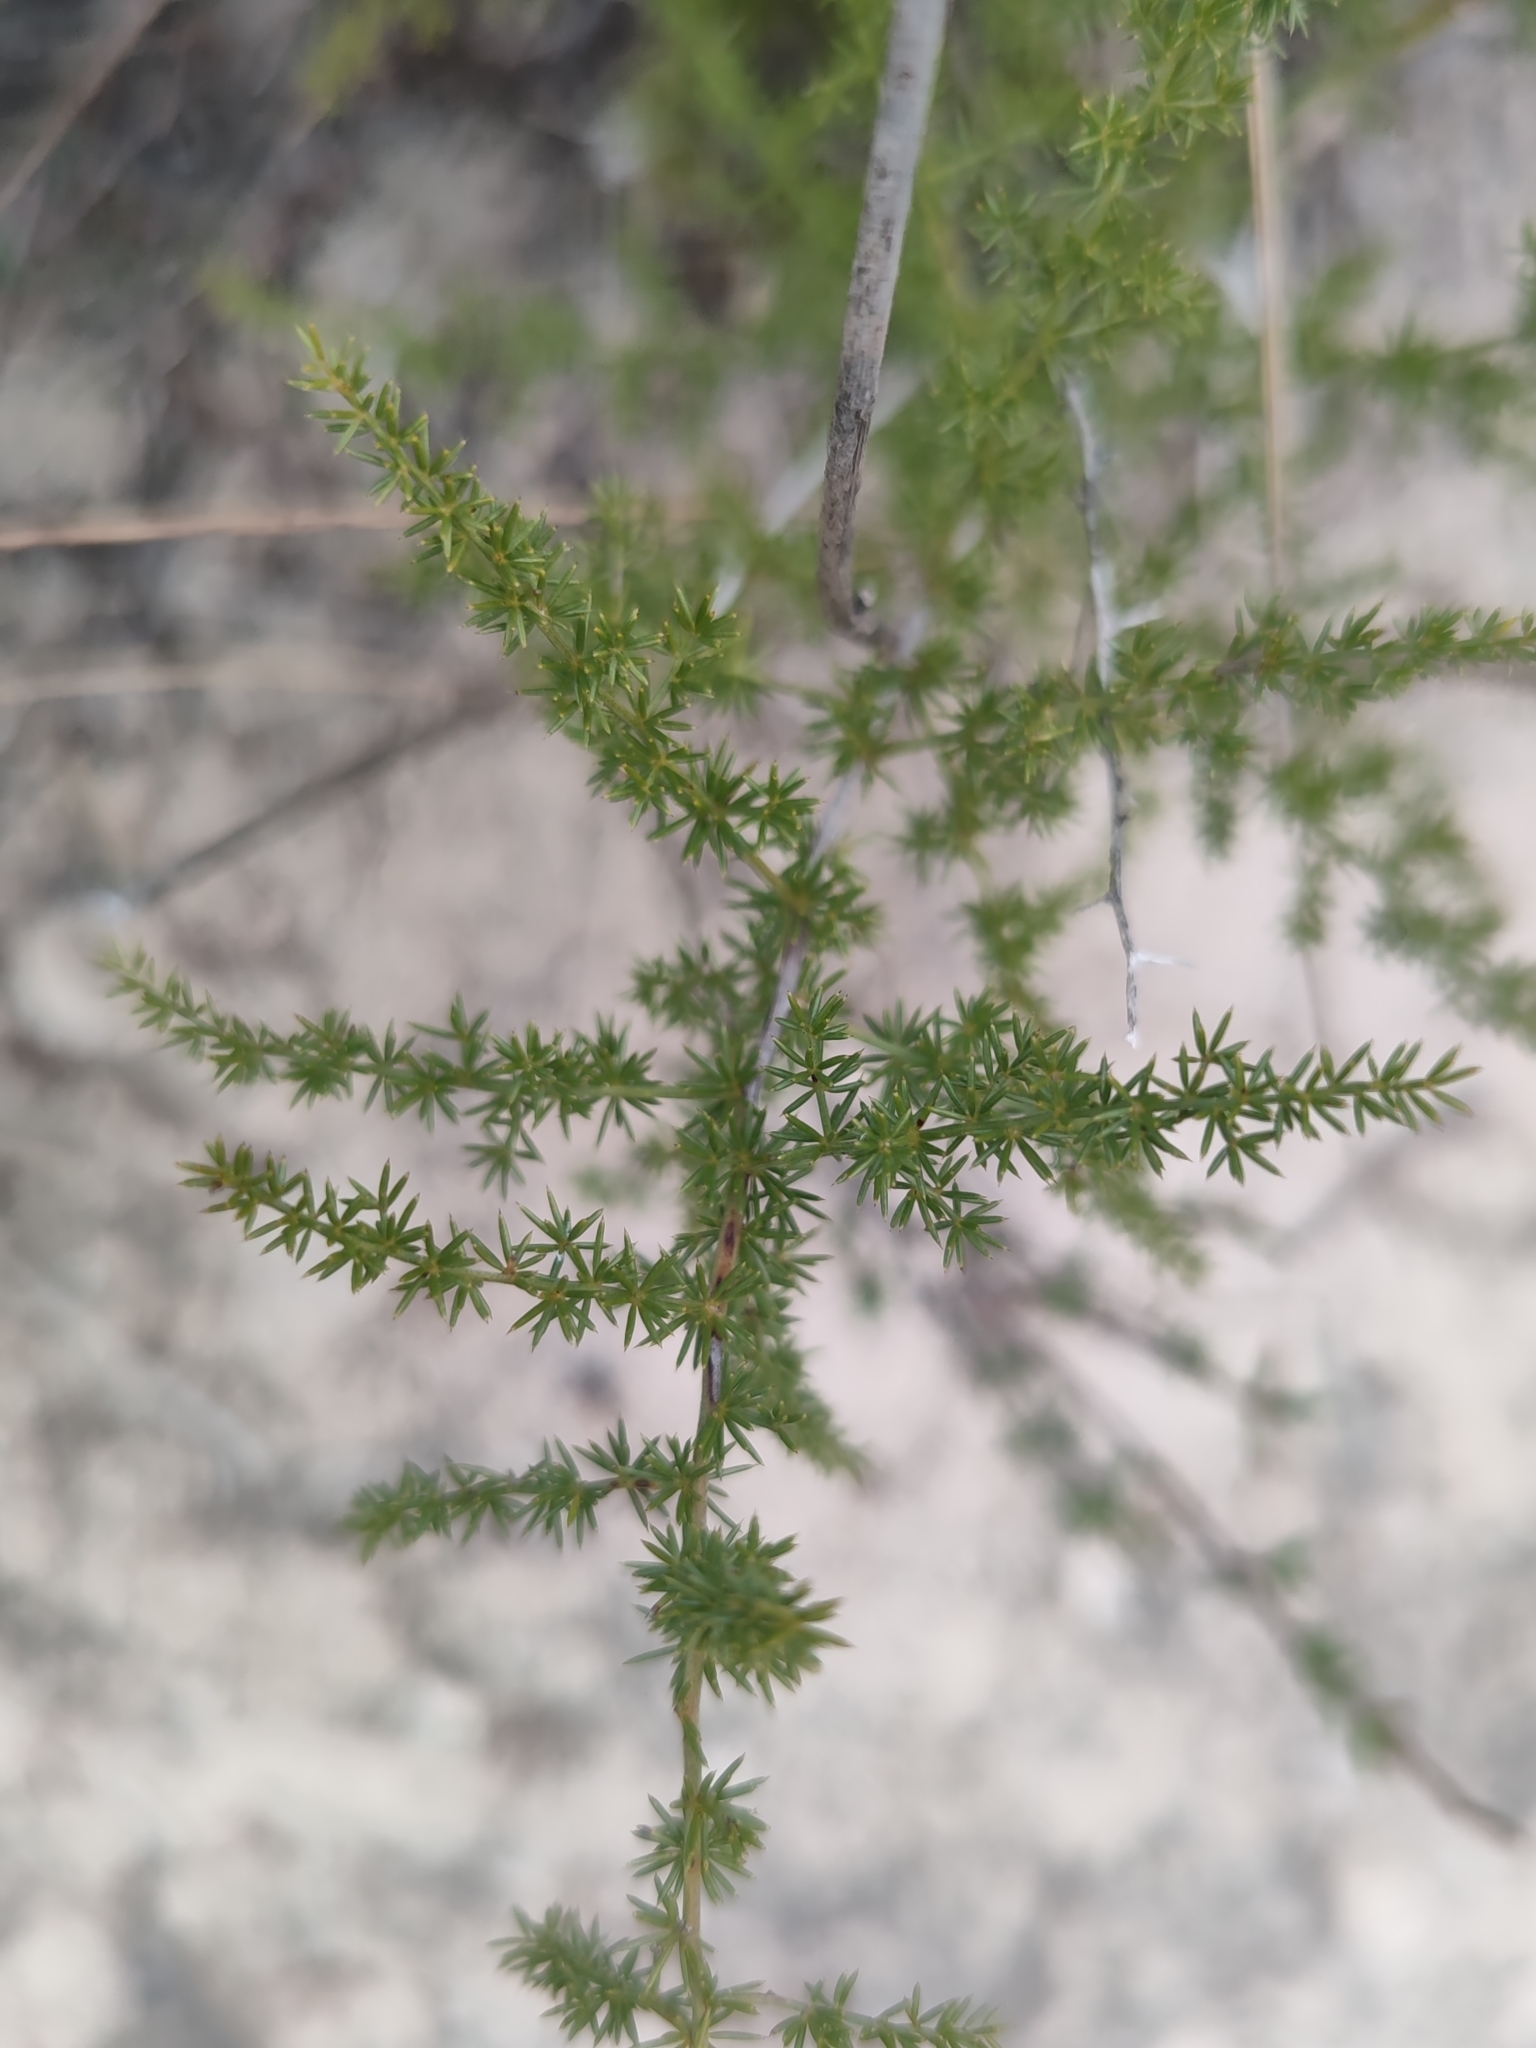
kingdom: Plantae
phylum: Tracheophyta
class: Liliopsida
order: Asparagales
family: Asparagaceae
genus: Asparagus
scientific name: Asparagus acutifolius
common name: Wild asparagus
